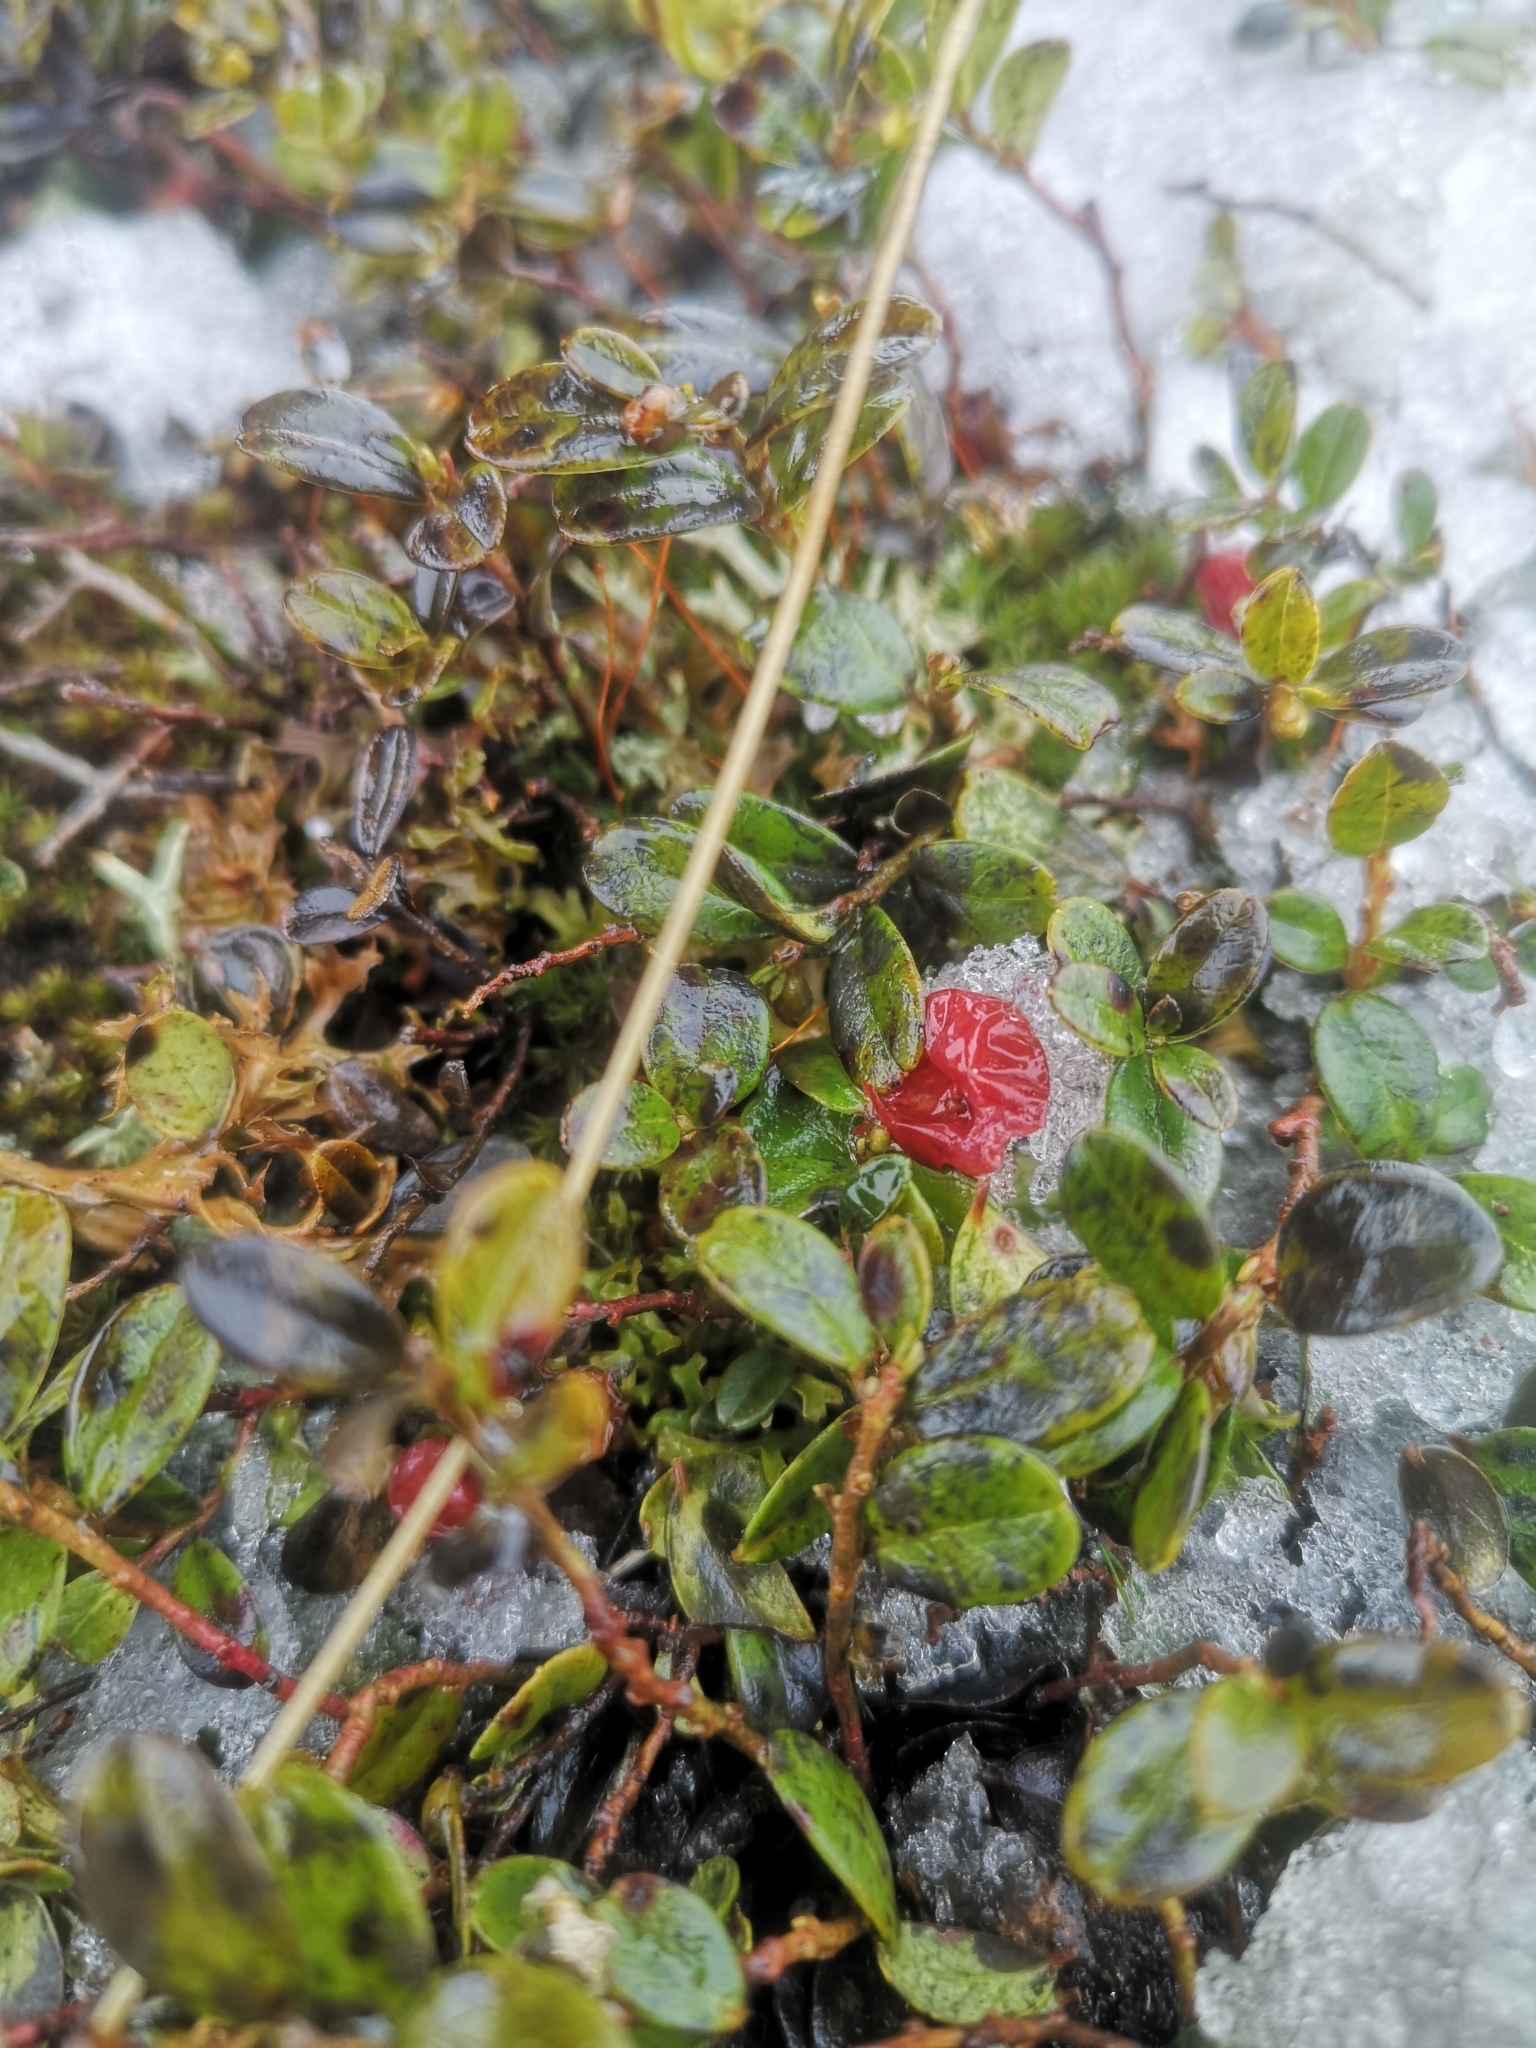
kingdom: Plantae
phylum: Tracheophyta
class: Magnoliopsida
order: Ericales
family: Ericaceae
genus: Vaccinium
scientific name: Vaccinium vitis-idaea
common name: Cowberry
